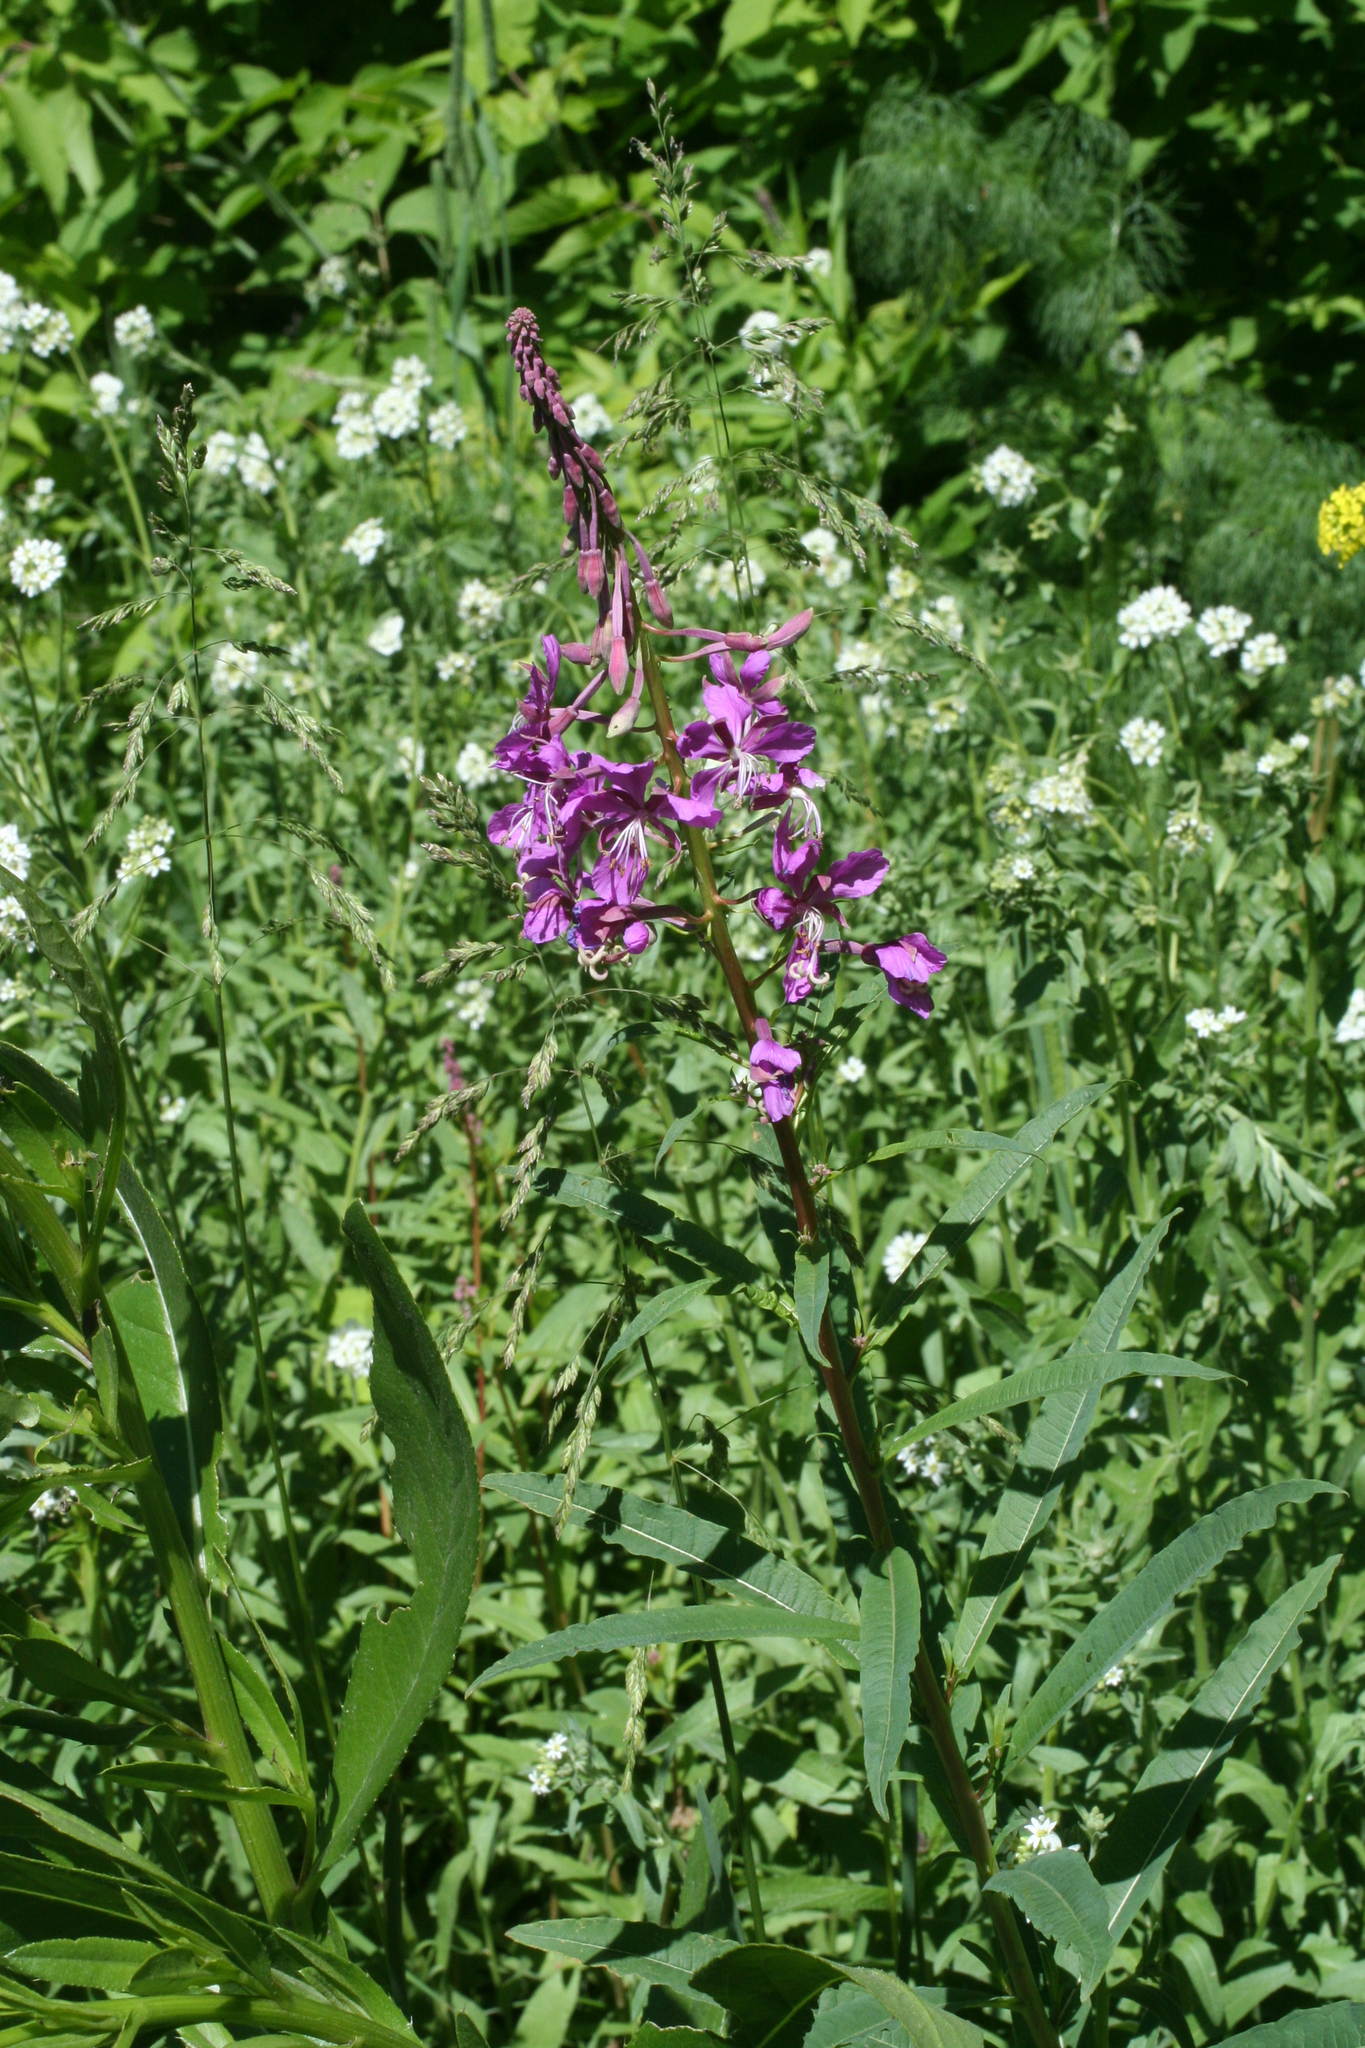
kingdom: Plantae
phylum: Tracheophyta
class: Magnoliopsida
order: Myrtales
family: Onagraceae
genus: Chamaenerion
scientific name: Chamaenerion angustifolium
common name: Fireweed
